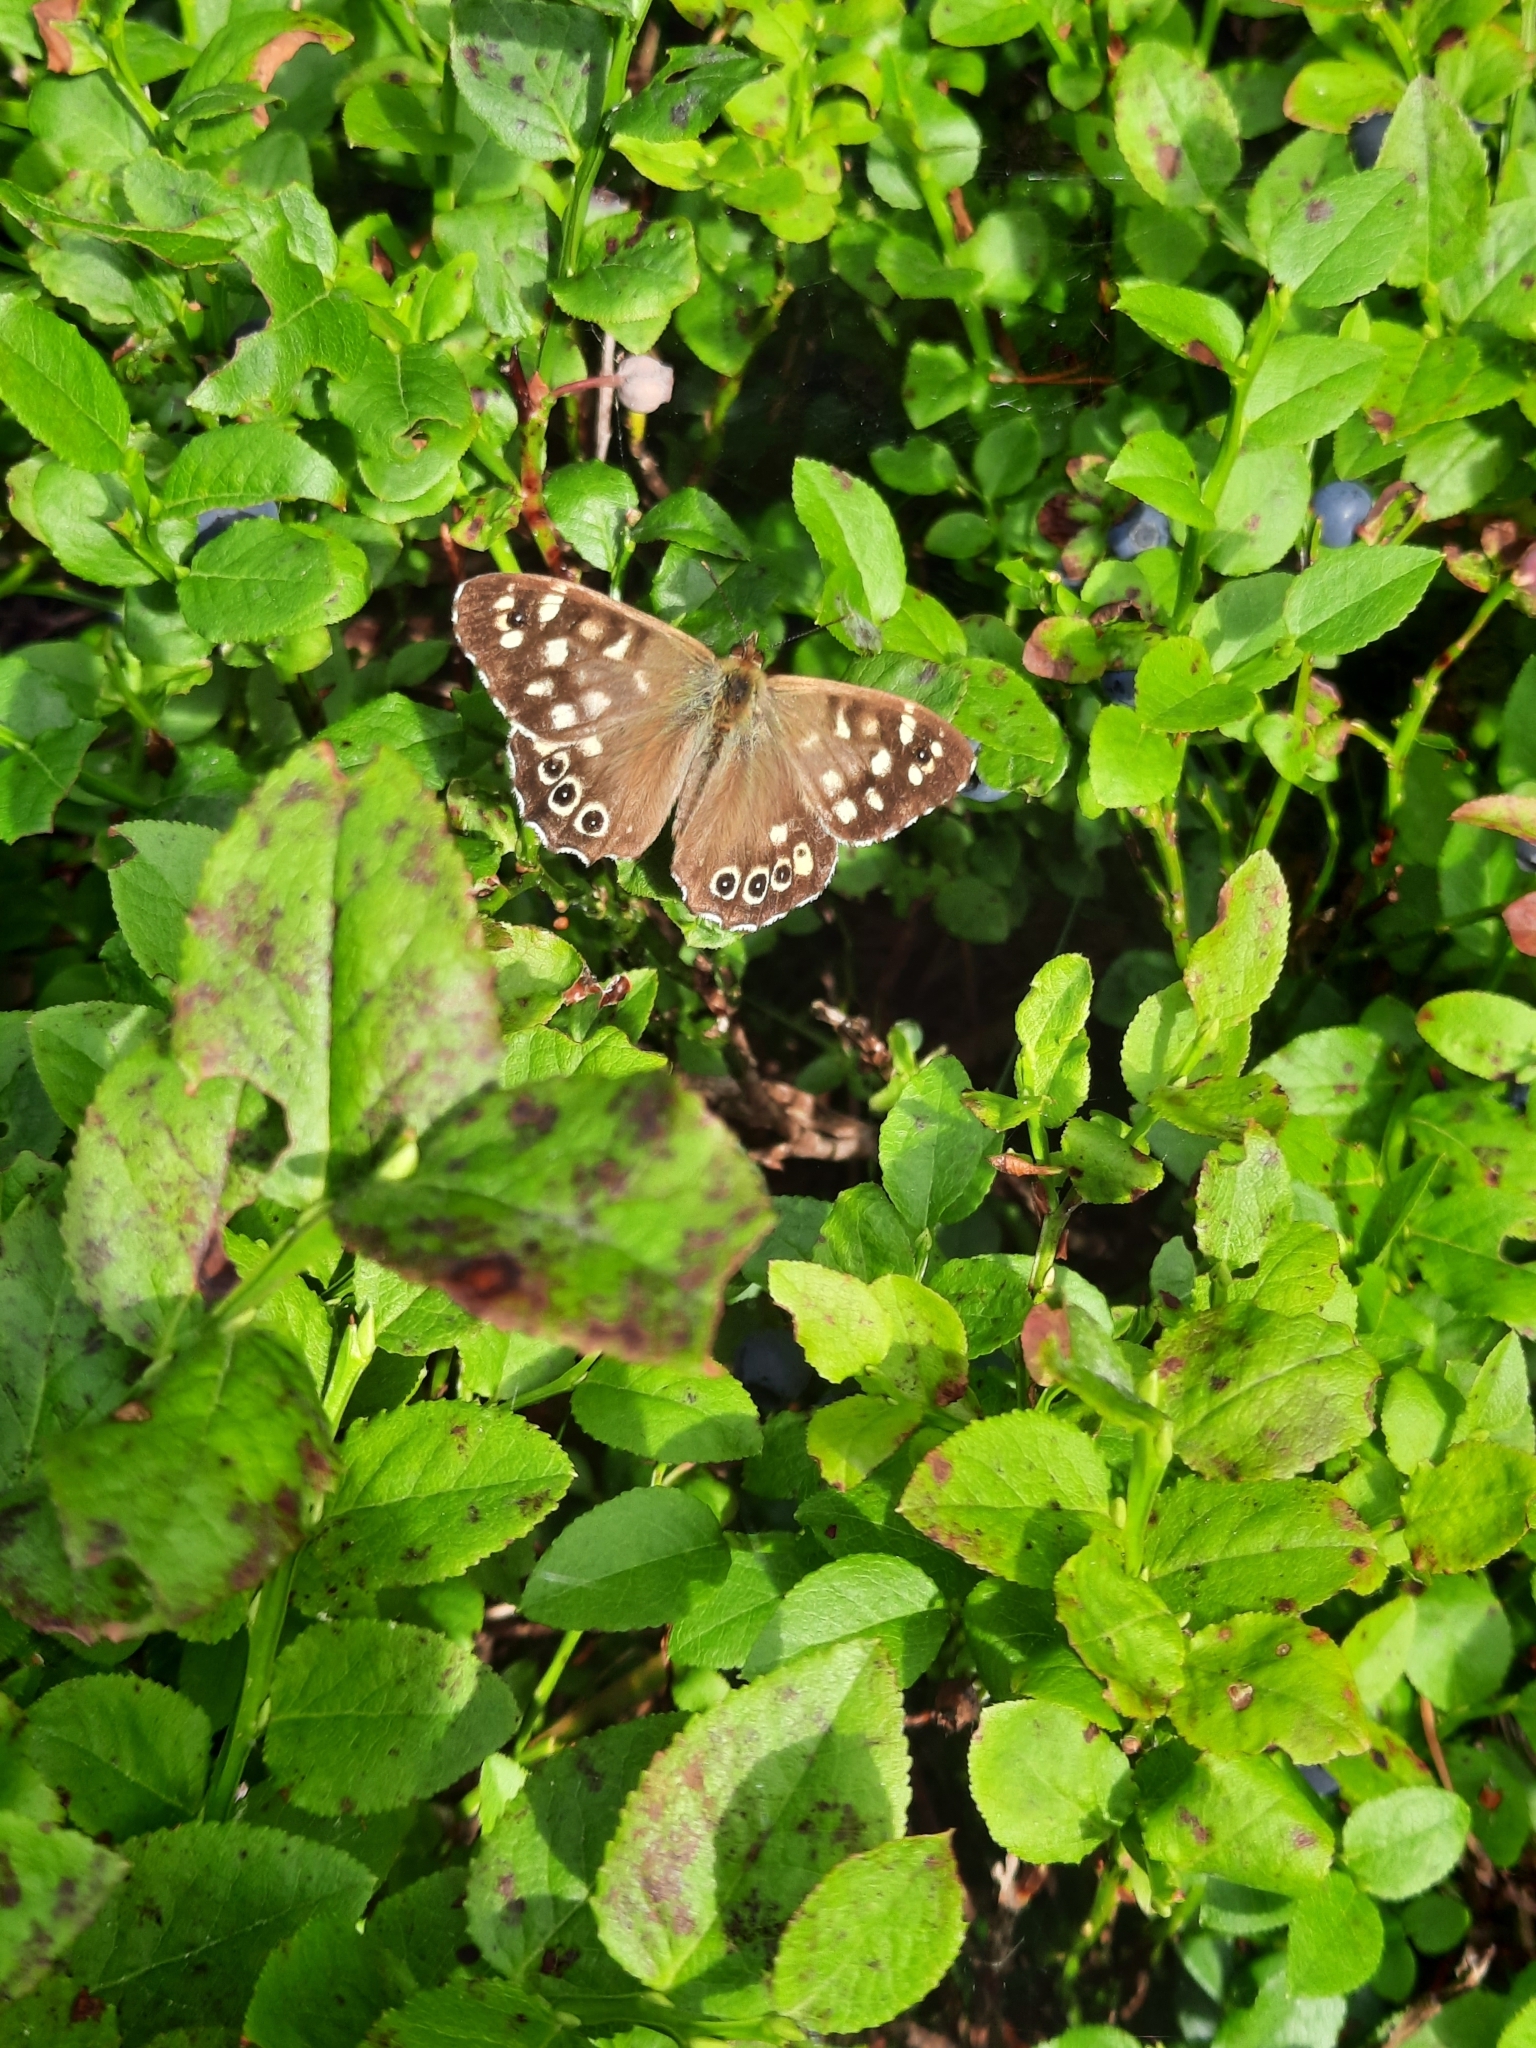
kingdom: Animalia
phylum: Arthropoda
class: Insecta
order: Lepidoptera
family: Nymphalidae
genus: Pararge
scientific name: Pararge aegeria
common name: Speckled wood
